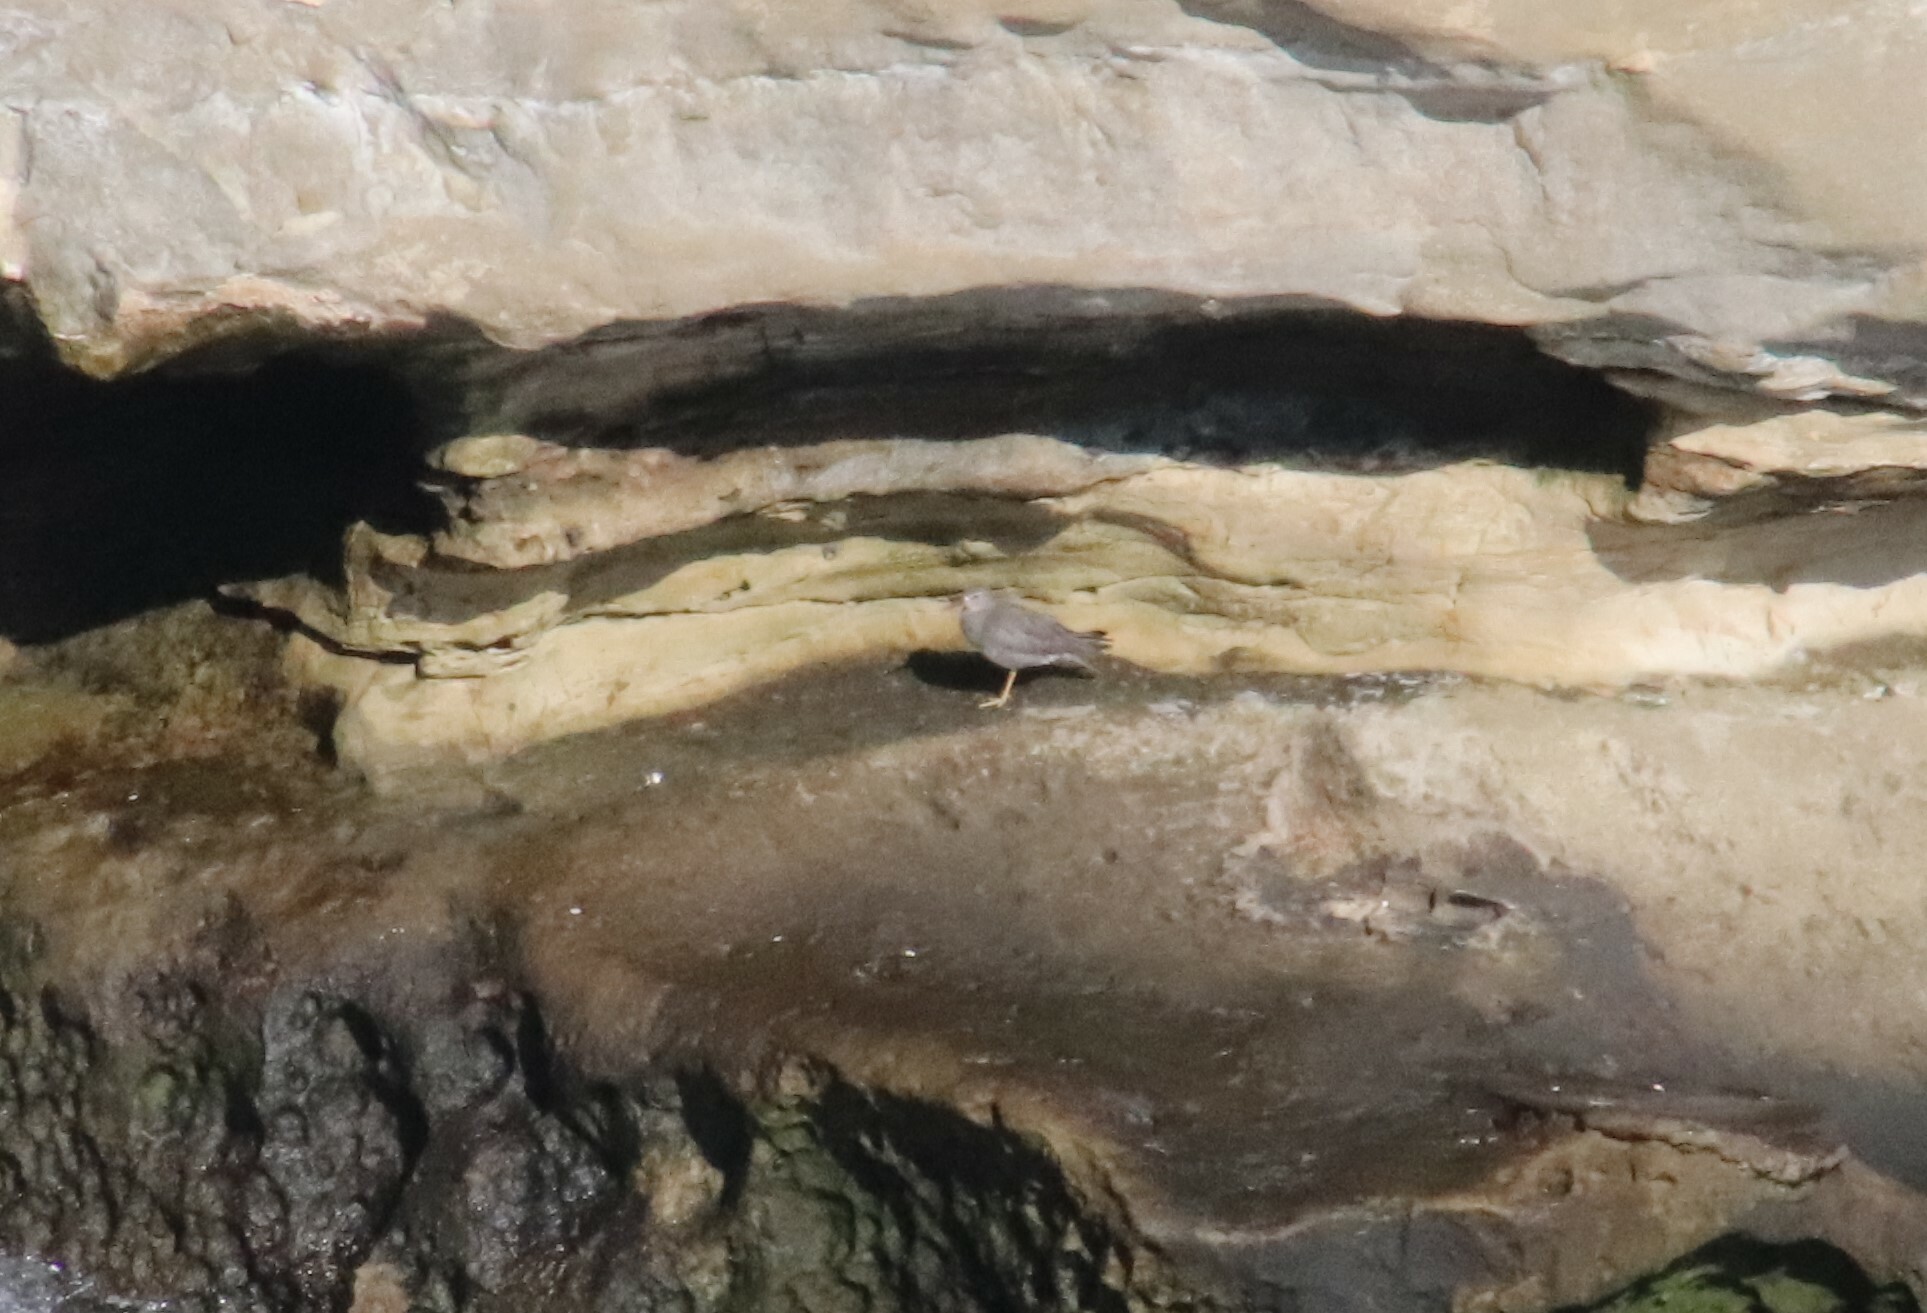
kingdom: Animalia
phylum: Chordata
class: Aves
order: Charadriiformes
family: Scolopacidae
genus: Tringa
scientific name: Tringa incana
